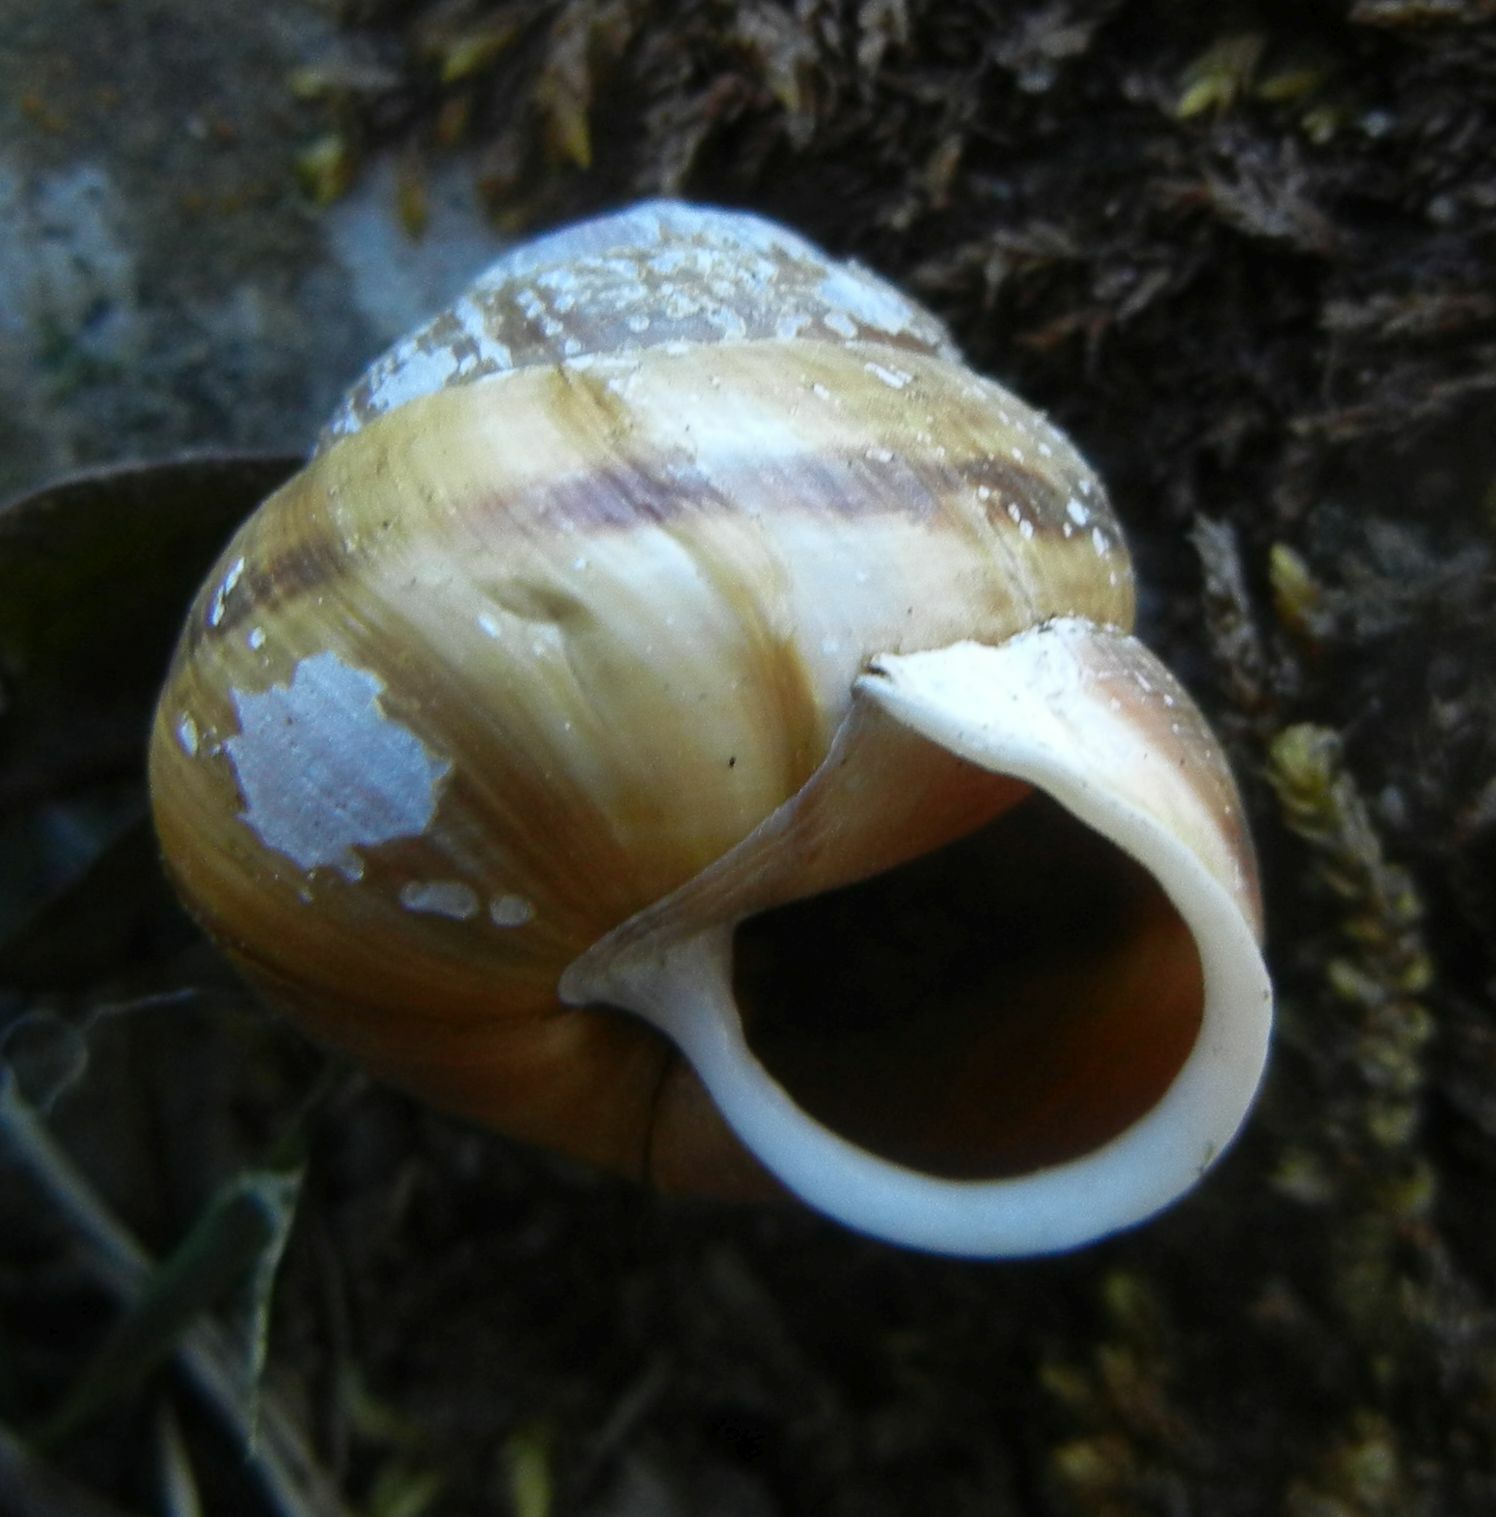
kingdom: Animalia
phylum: Mollusca
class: Gastropoda
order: Stylommatophora
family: Helicidae
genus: Arianta
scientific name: Arianta arbustorum
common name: Copse snail
